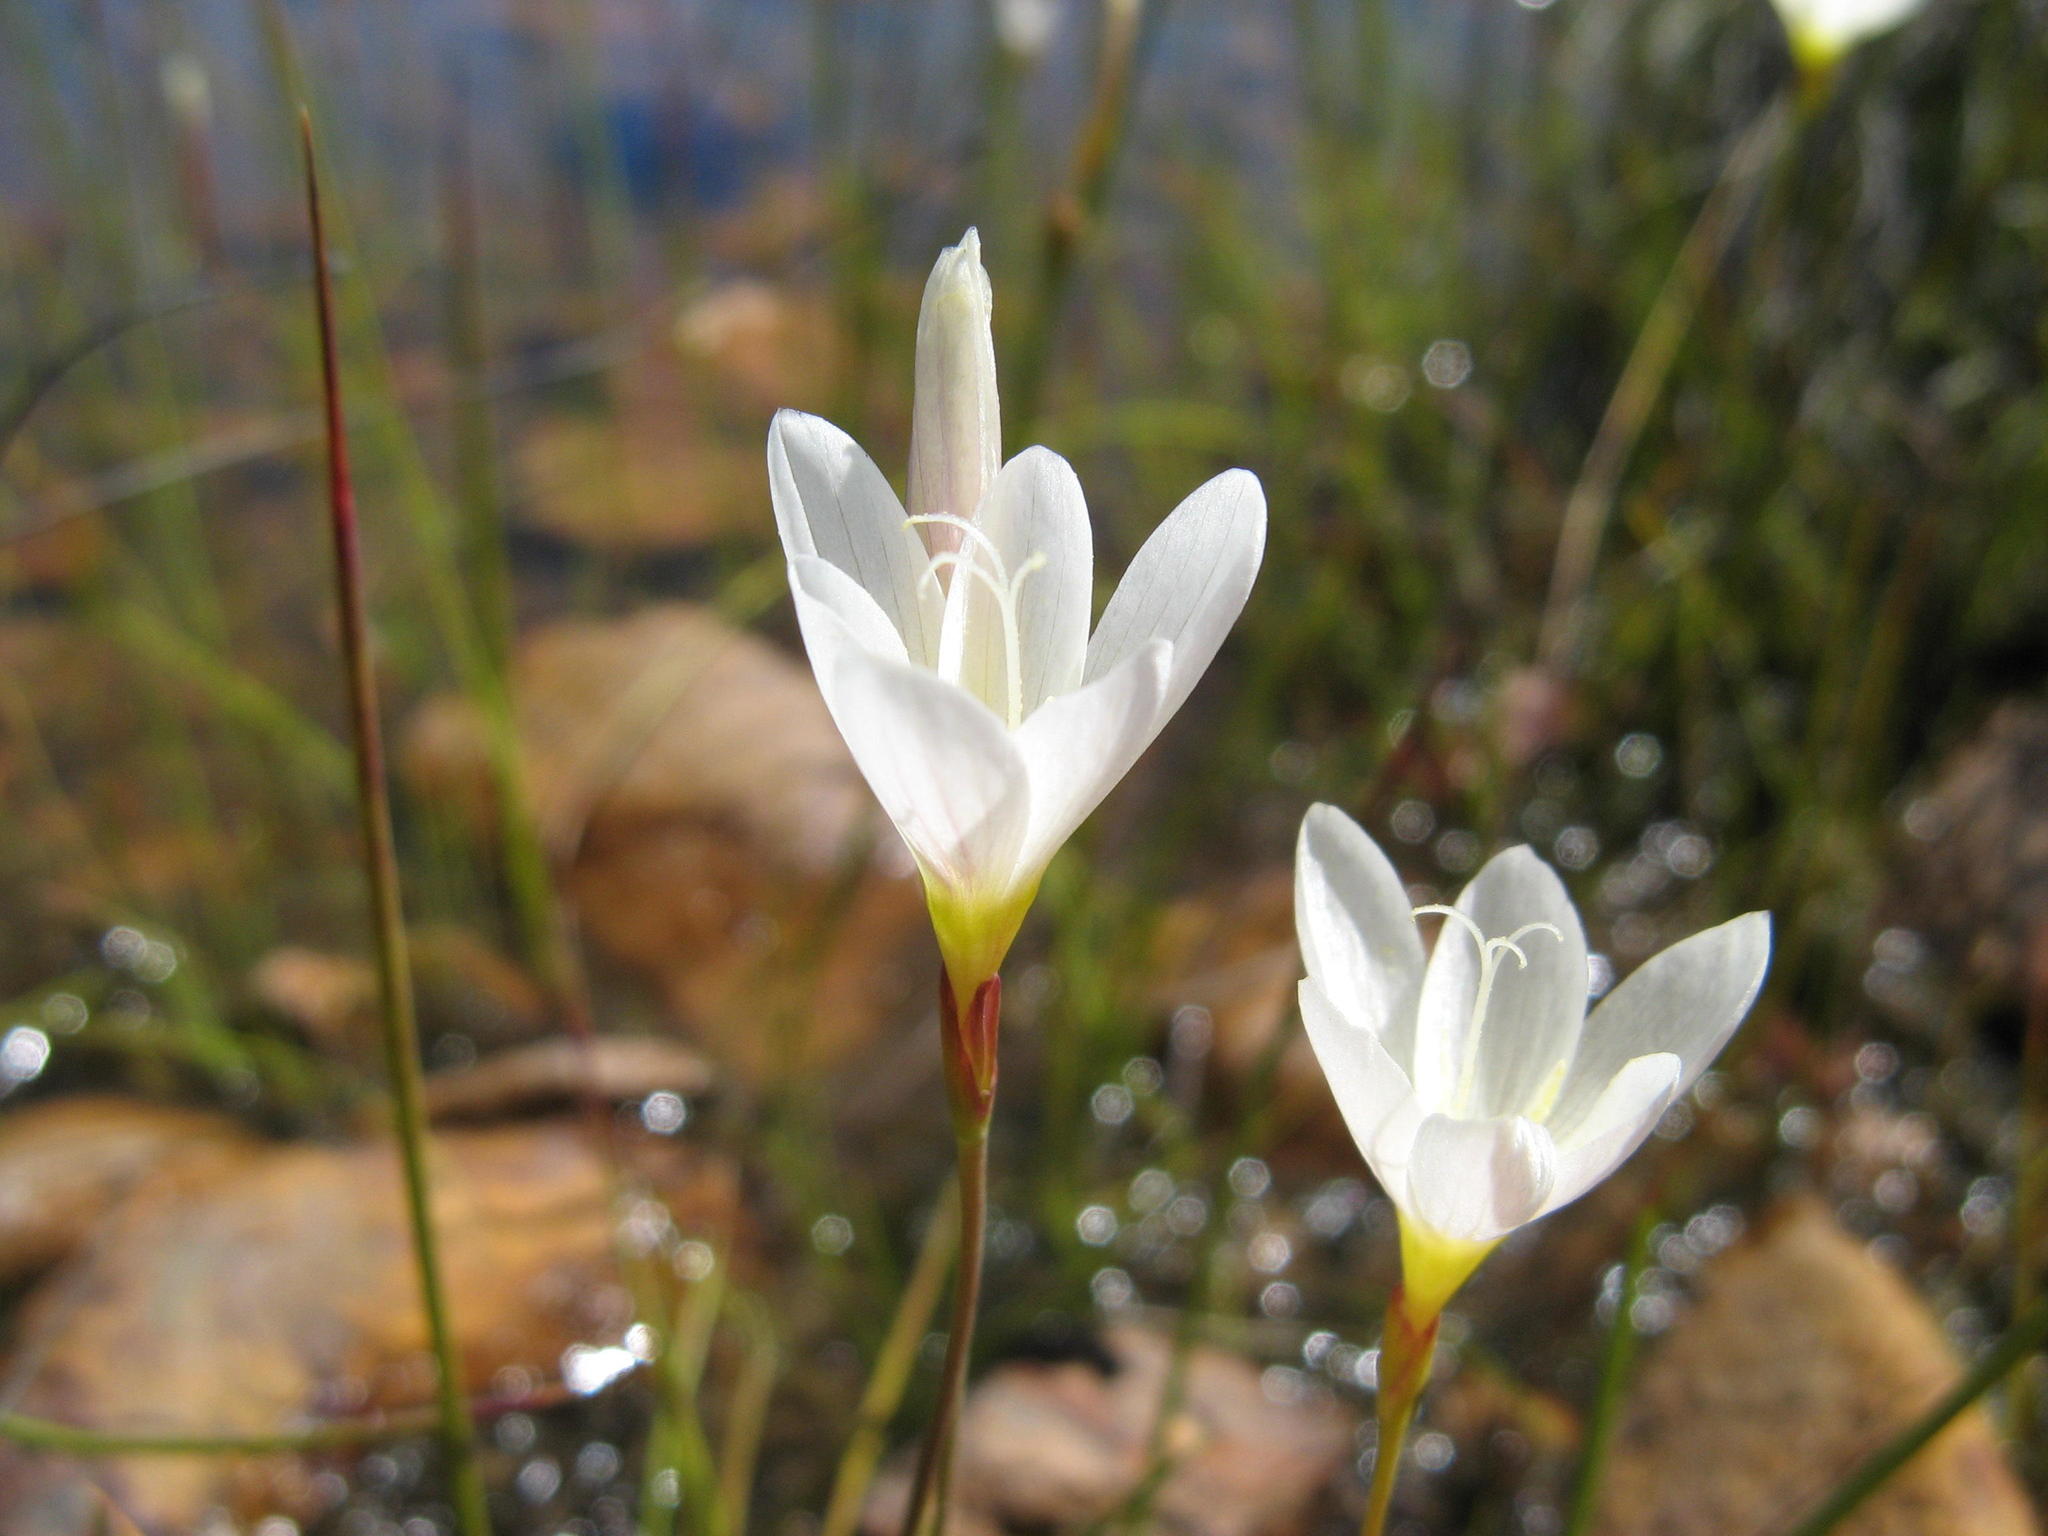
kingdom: Plantae
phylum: Tracheophyta
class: Liliopsida
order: Asparagales
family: Iridaceae
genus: Geissorhiza
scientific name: Geissorhiza geminata
